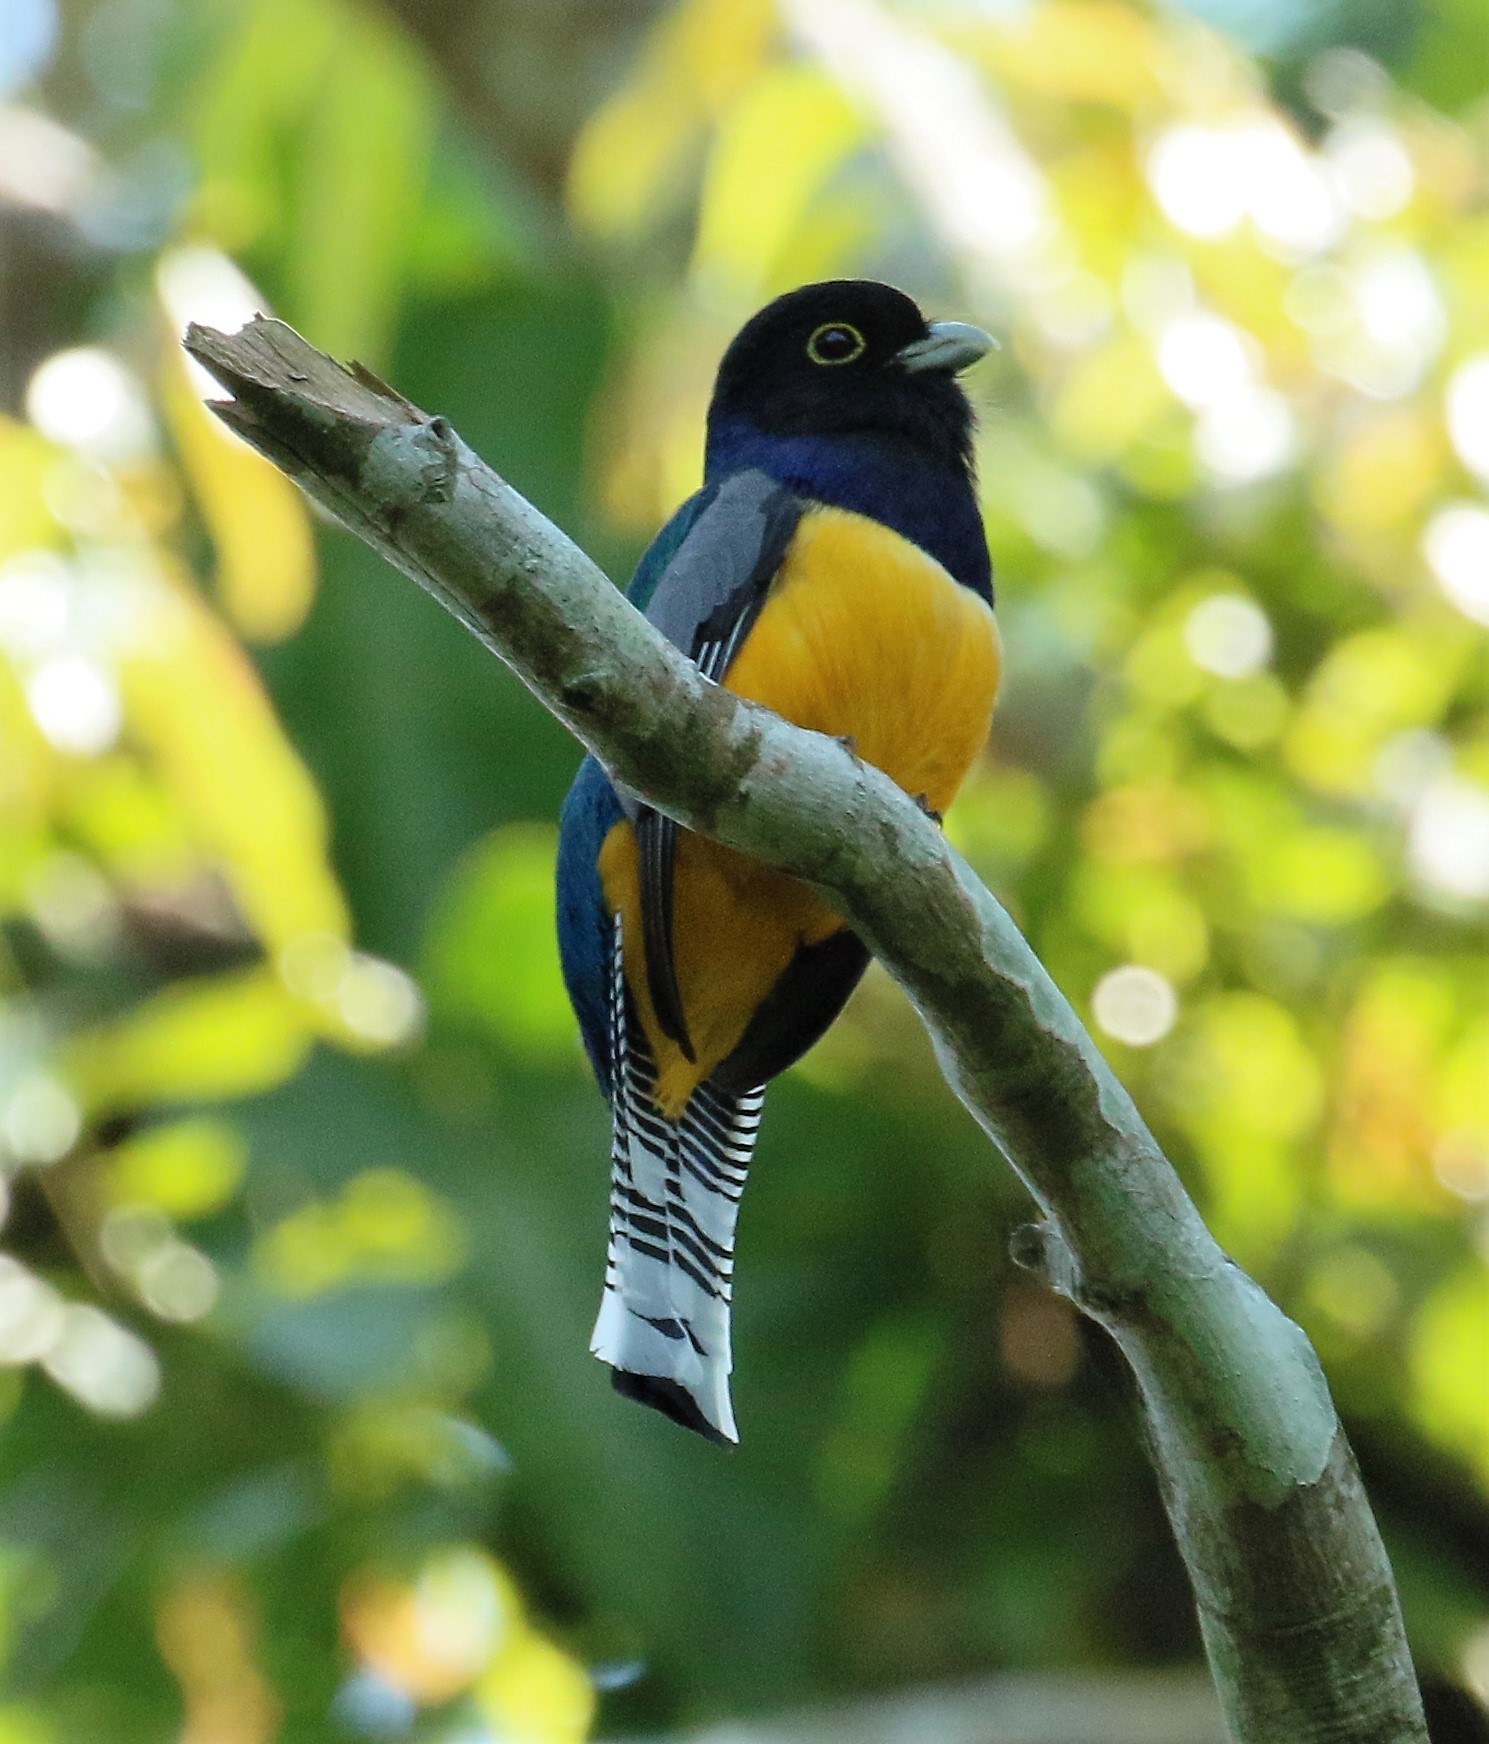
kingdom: Animalia
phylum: Chordata
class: Aves
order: Trogoniformes
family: Trogonidae
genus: Trogon
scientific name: Trogon caligatus
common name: Gartered trogon
